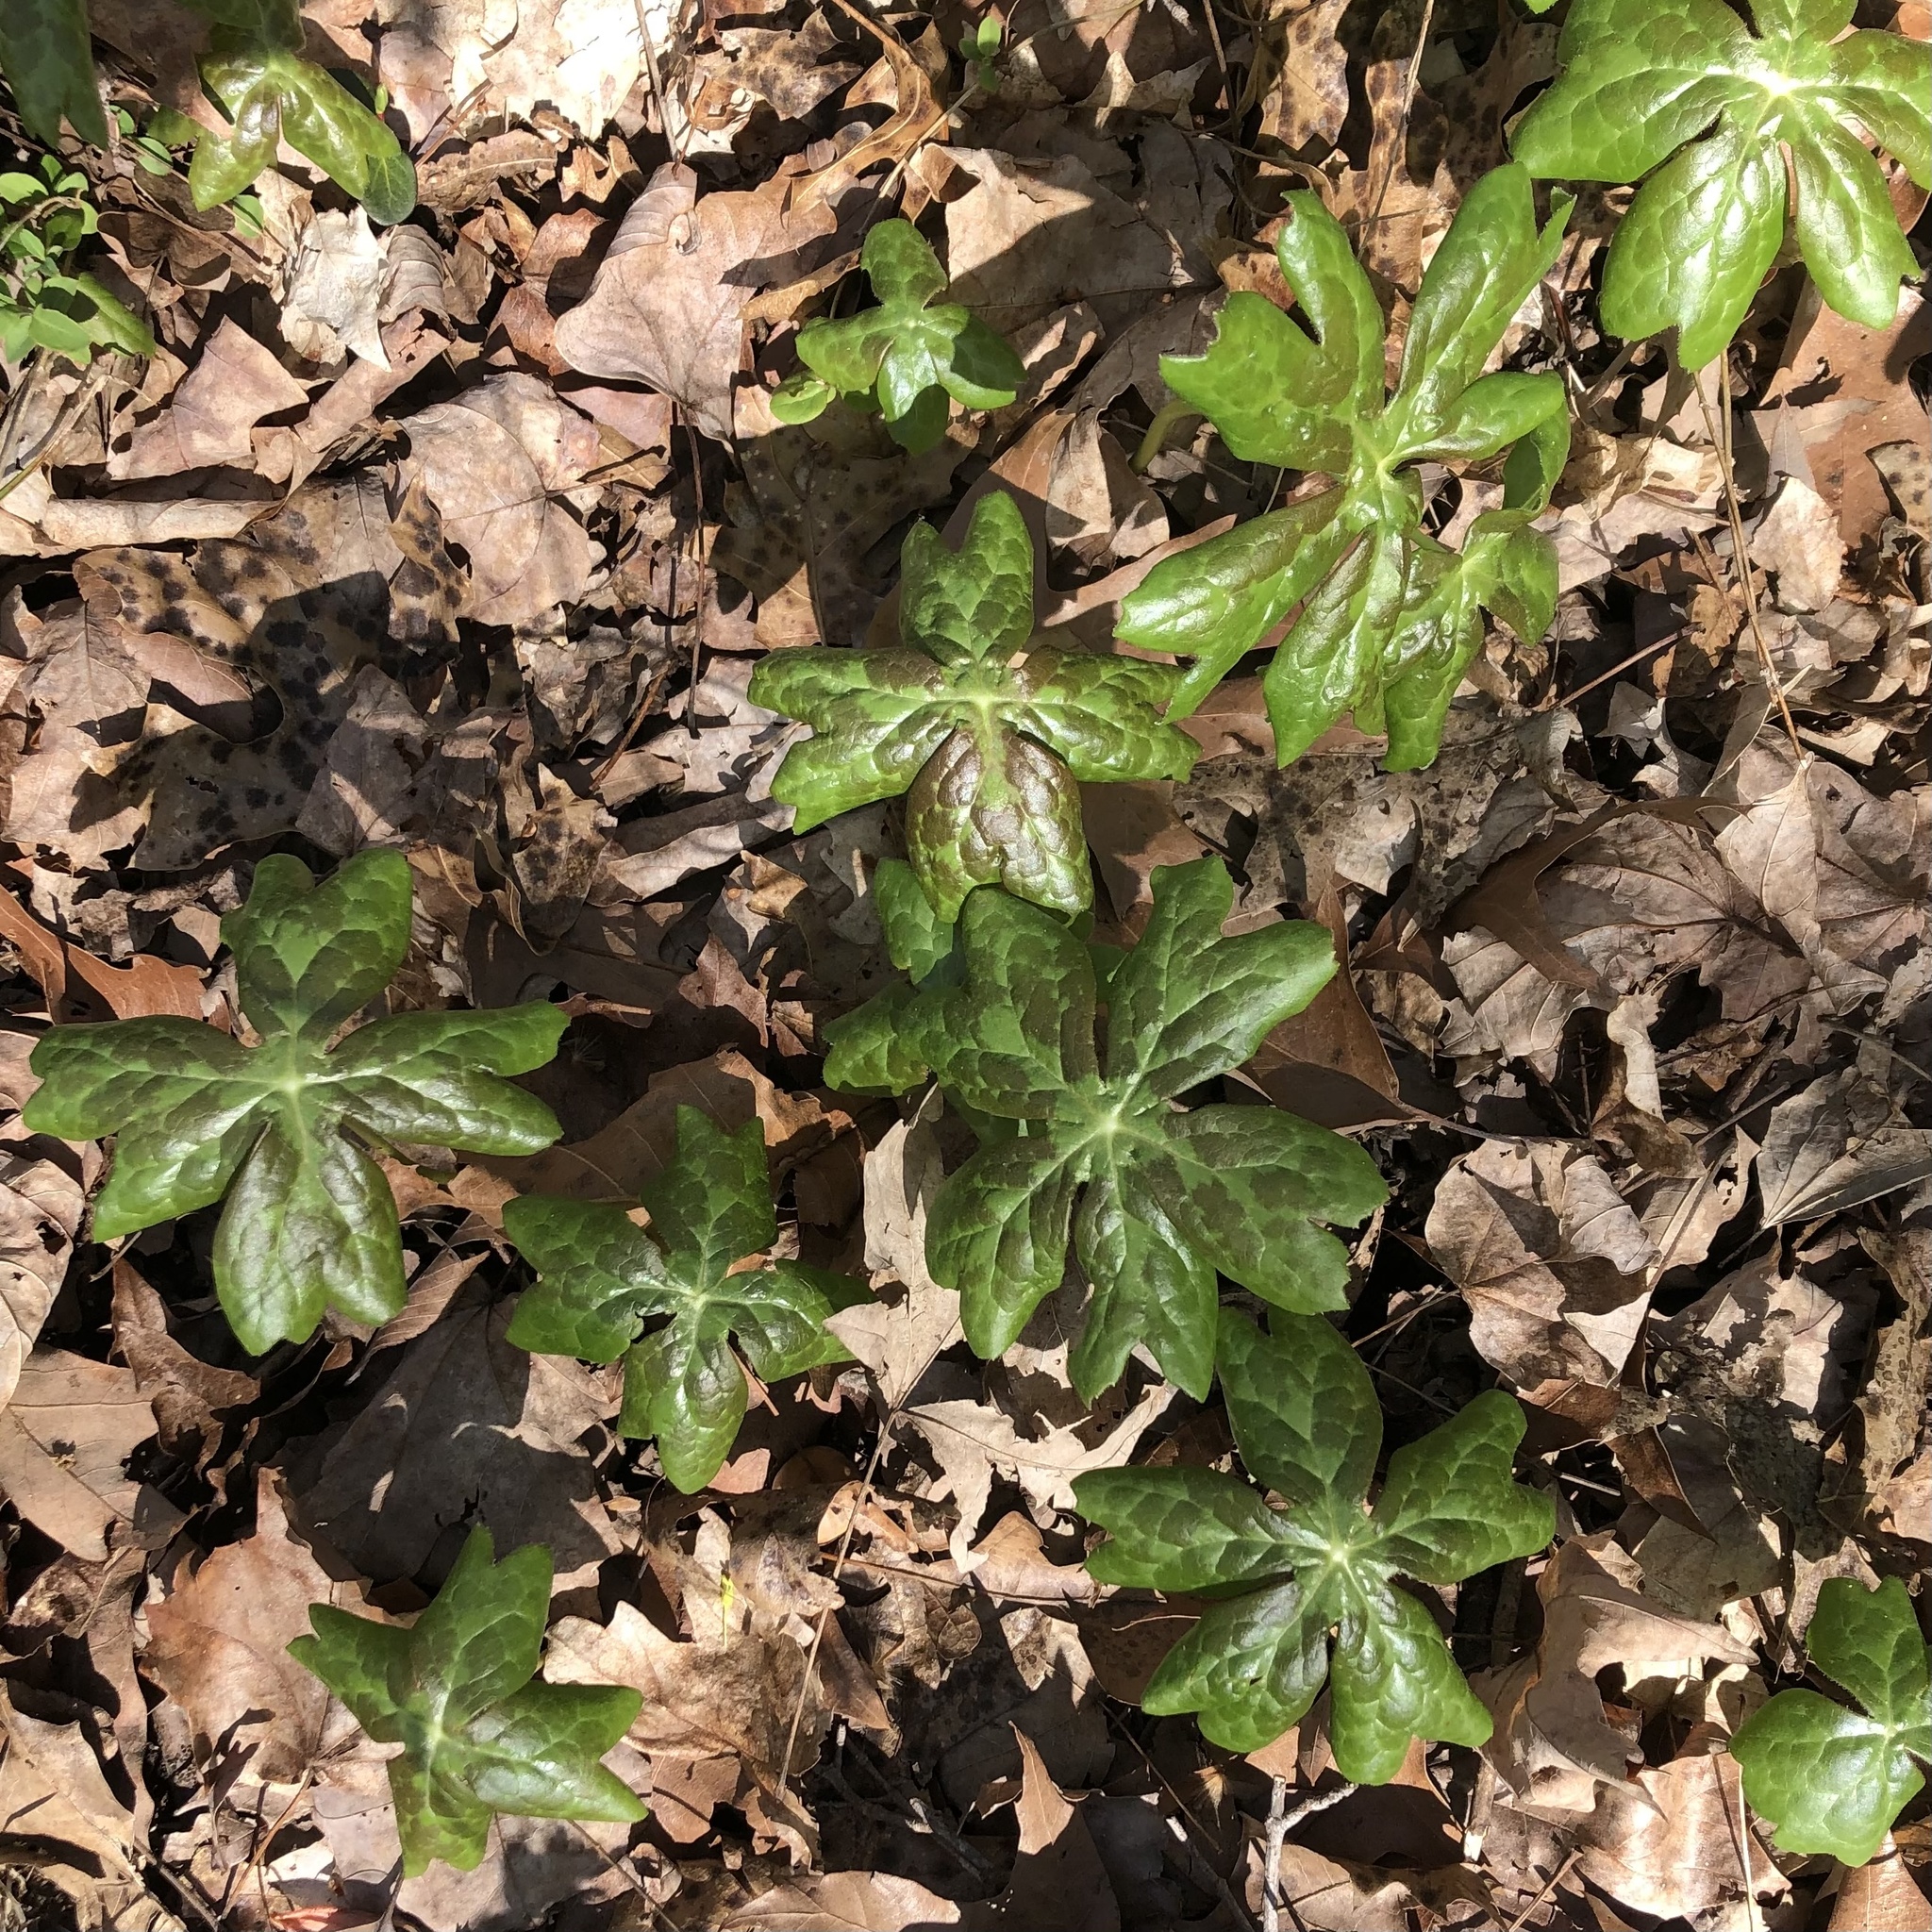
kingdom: Plantae
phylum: Tracheophyta
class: Magnoliopsida
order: Ranunculales
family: Berberidaceae
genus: Podophyllum
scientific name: Podophyllum peltatum
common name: Wild mandrake
